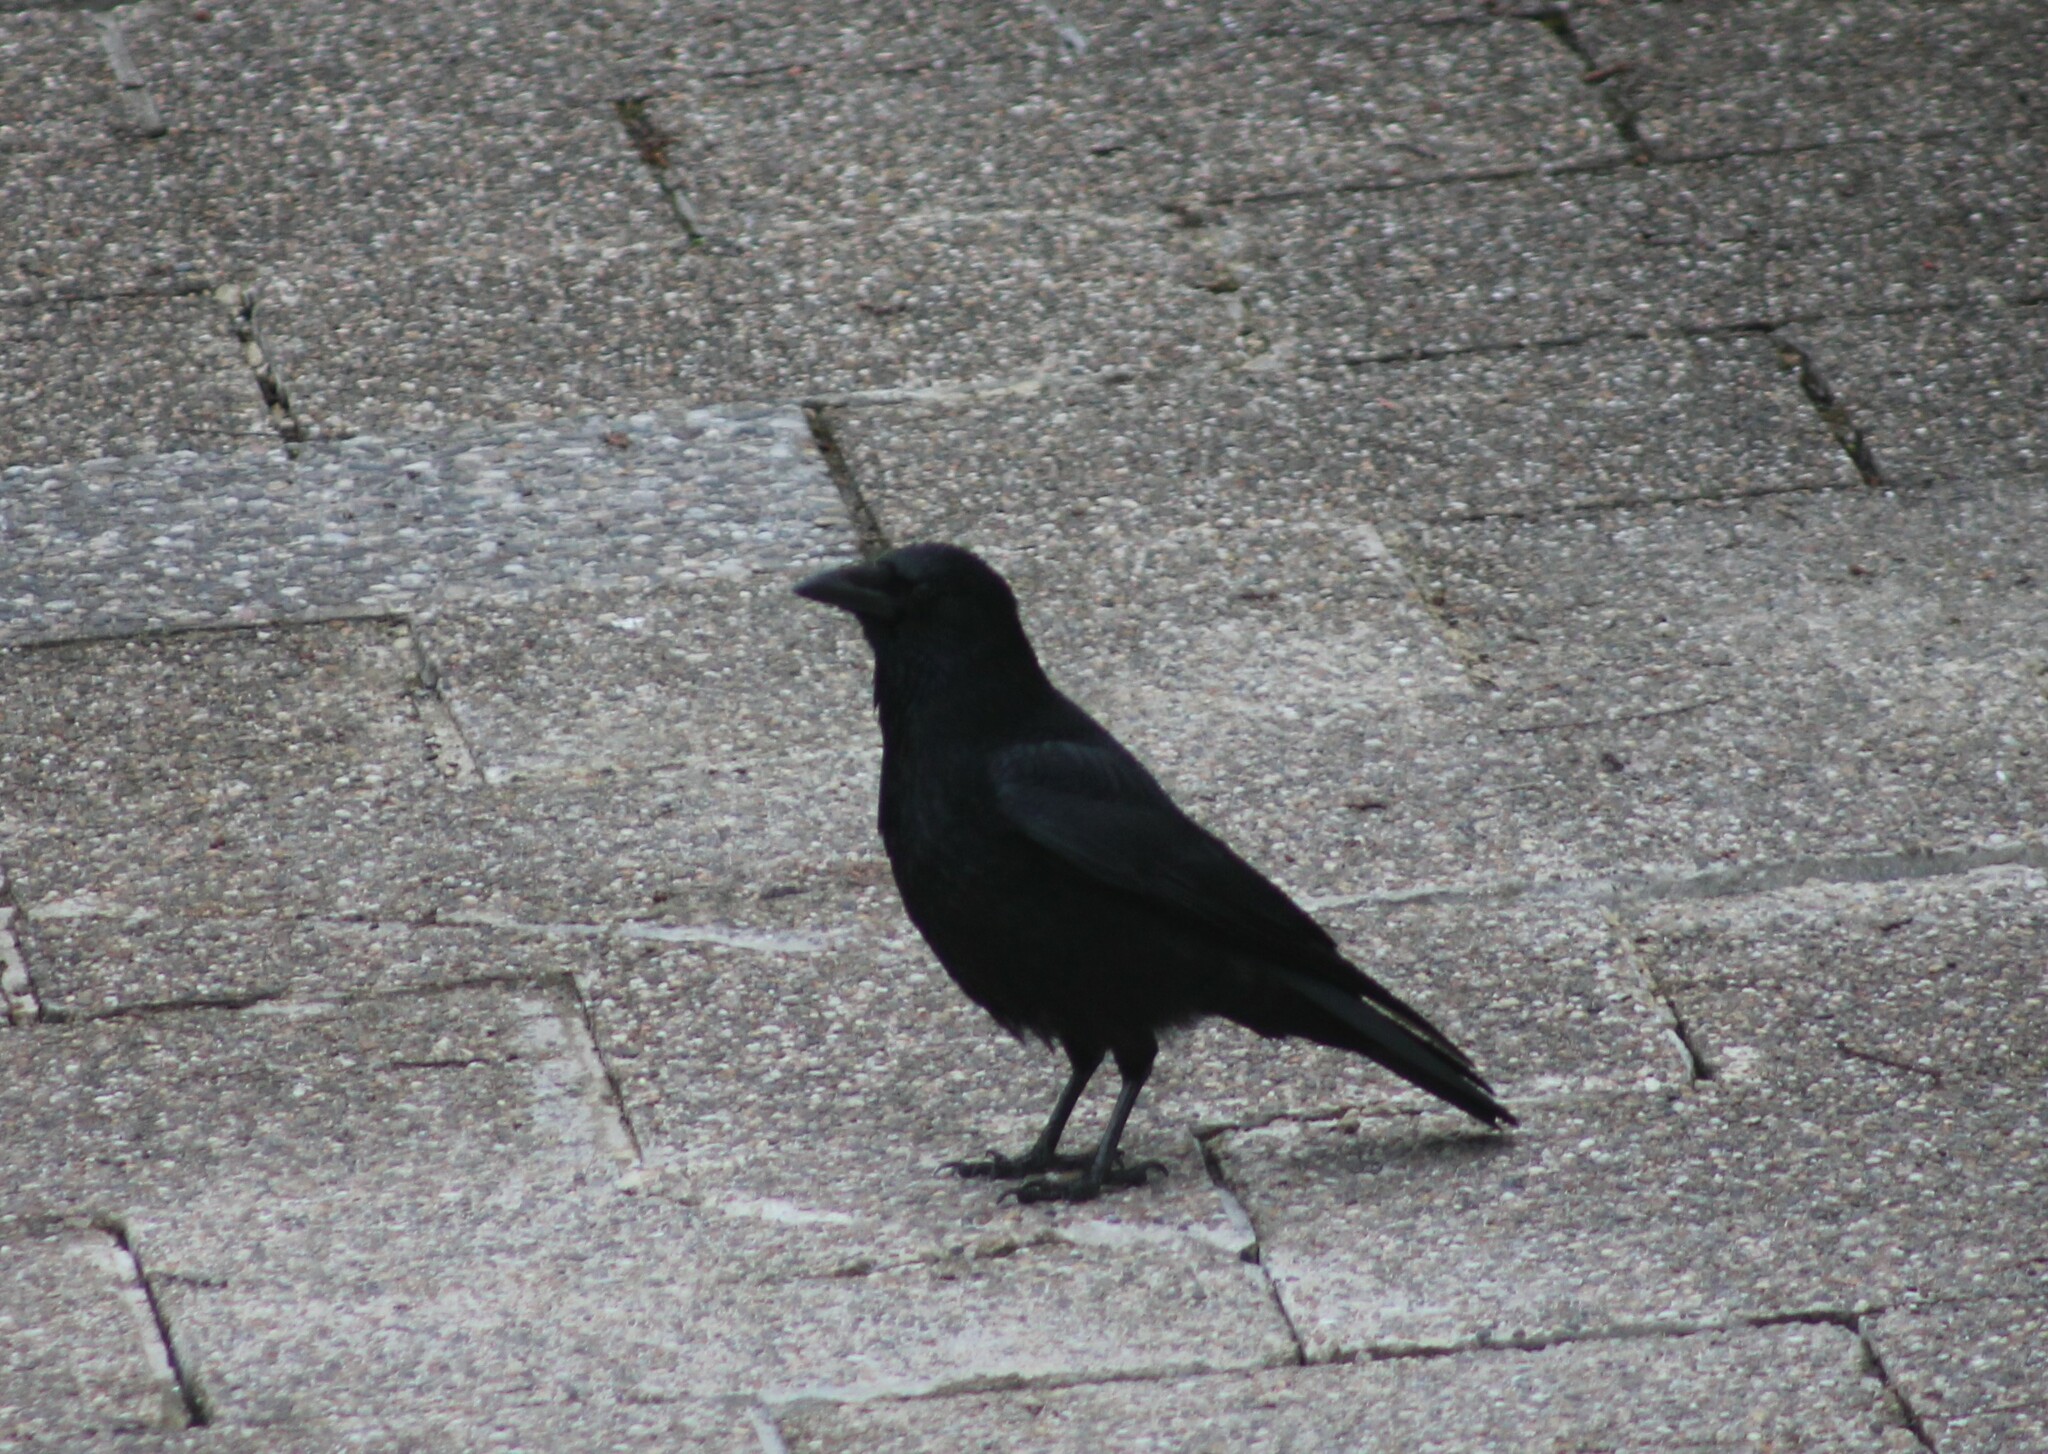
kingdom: Animalia
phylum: Chordata
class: Aves
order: Passeriformes
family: Corvidae
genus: Corvus
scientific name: Corvus corone
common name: Carrion crow
